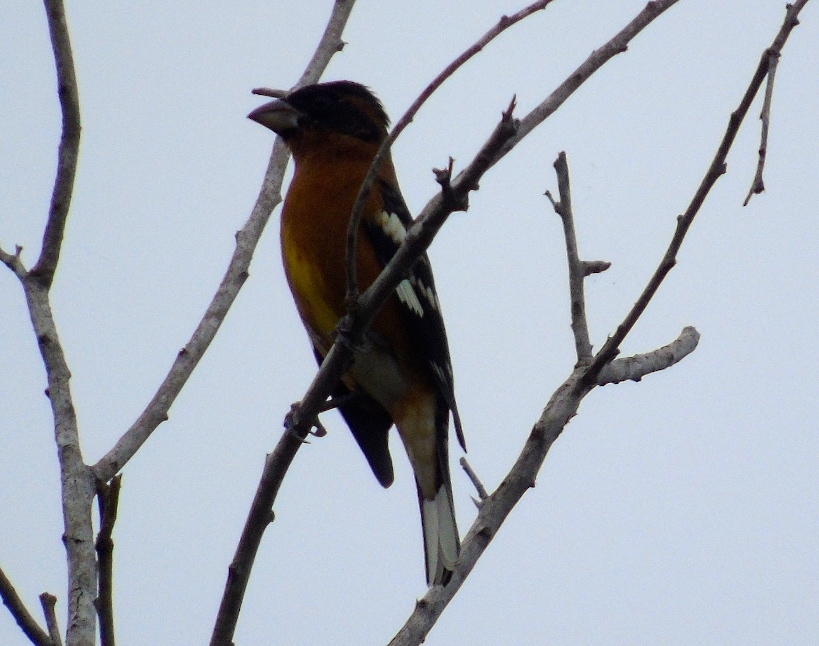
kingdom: Animalia
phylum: Chordata
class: Aves
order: Passeriformes
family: Cardinalidae
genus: Pheucticus
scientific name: Pheucticus melanocephalus
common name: Black-headed grosbeak
